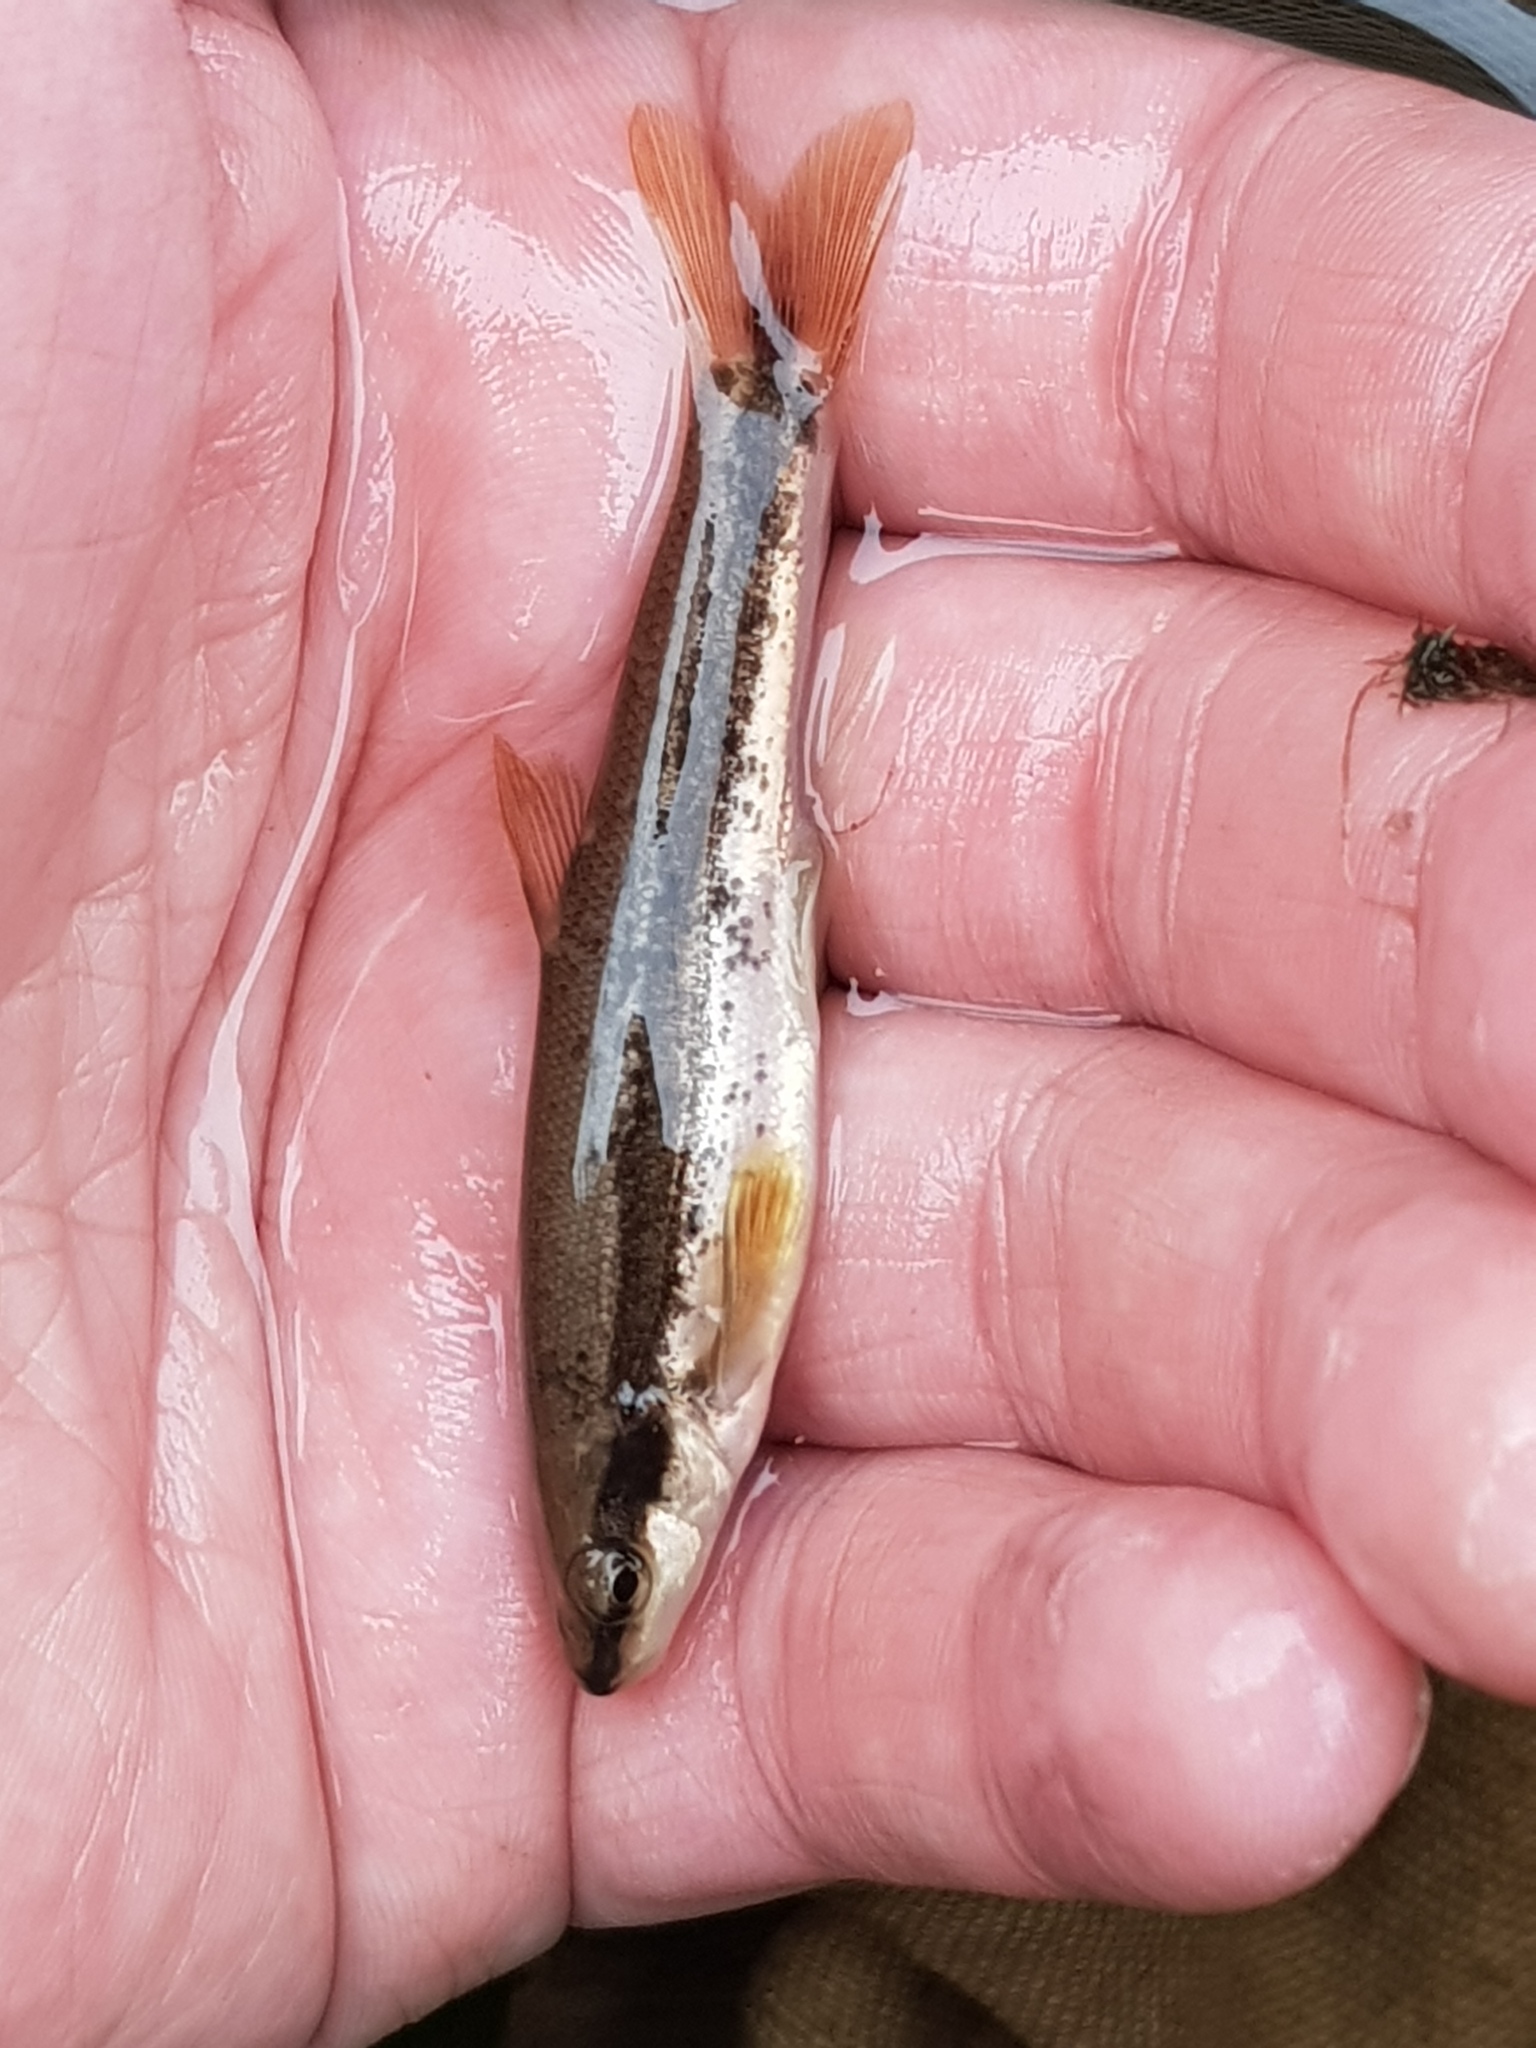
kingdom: Animalia
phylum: Chordata
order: Cypriniformes
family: Cyprinidae
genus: Rhinichthys
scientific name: Rhinichthys atratulus
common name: Eastern blacknose dace
